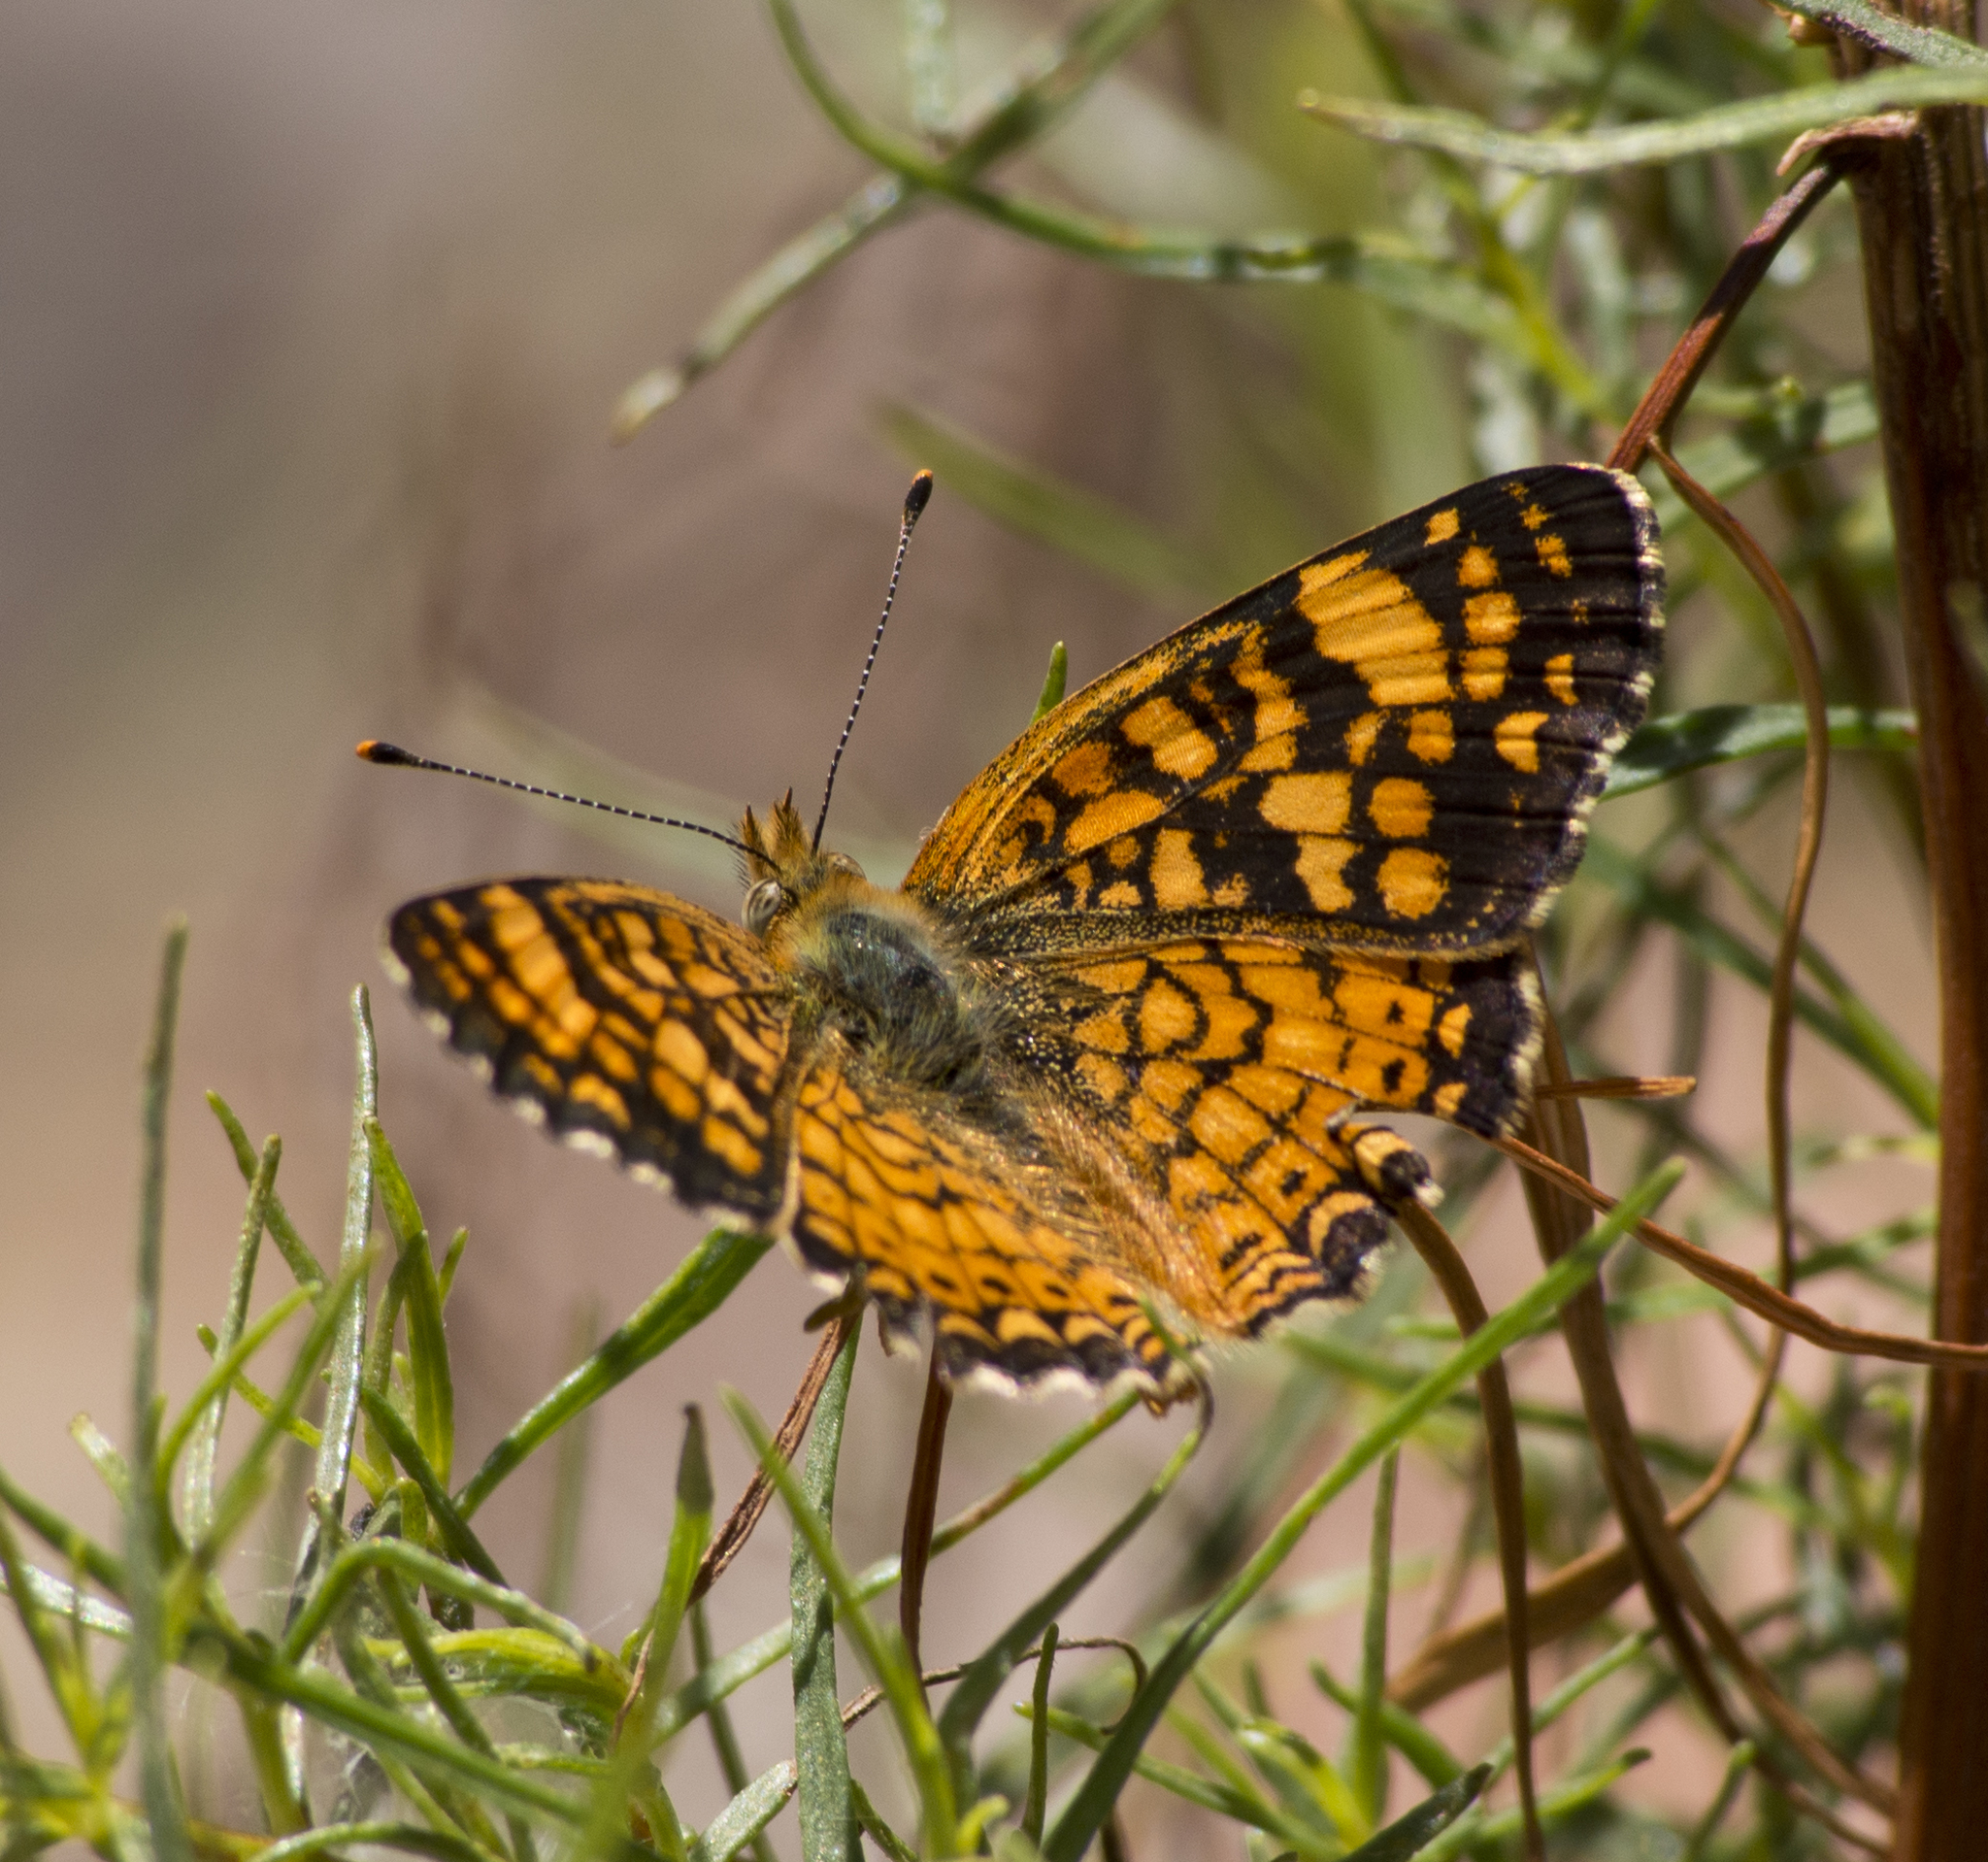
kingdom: Animalia
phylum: Arthropoda
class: Insecta
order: Lepidoptera
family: Nymphalidae
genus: Eresia
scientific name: Eresia aveyrona
